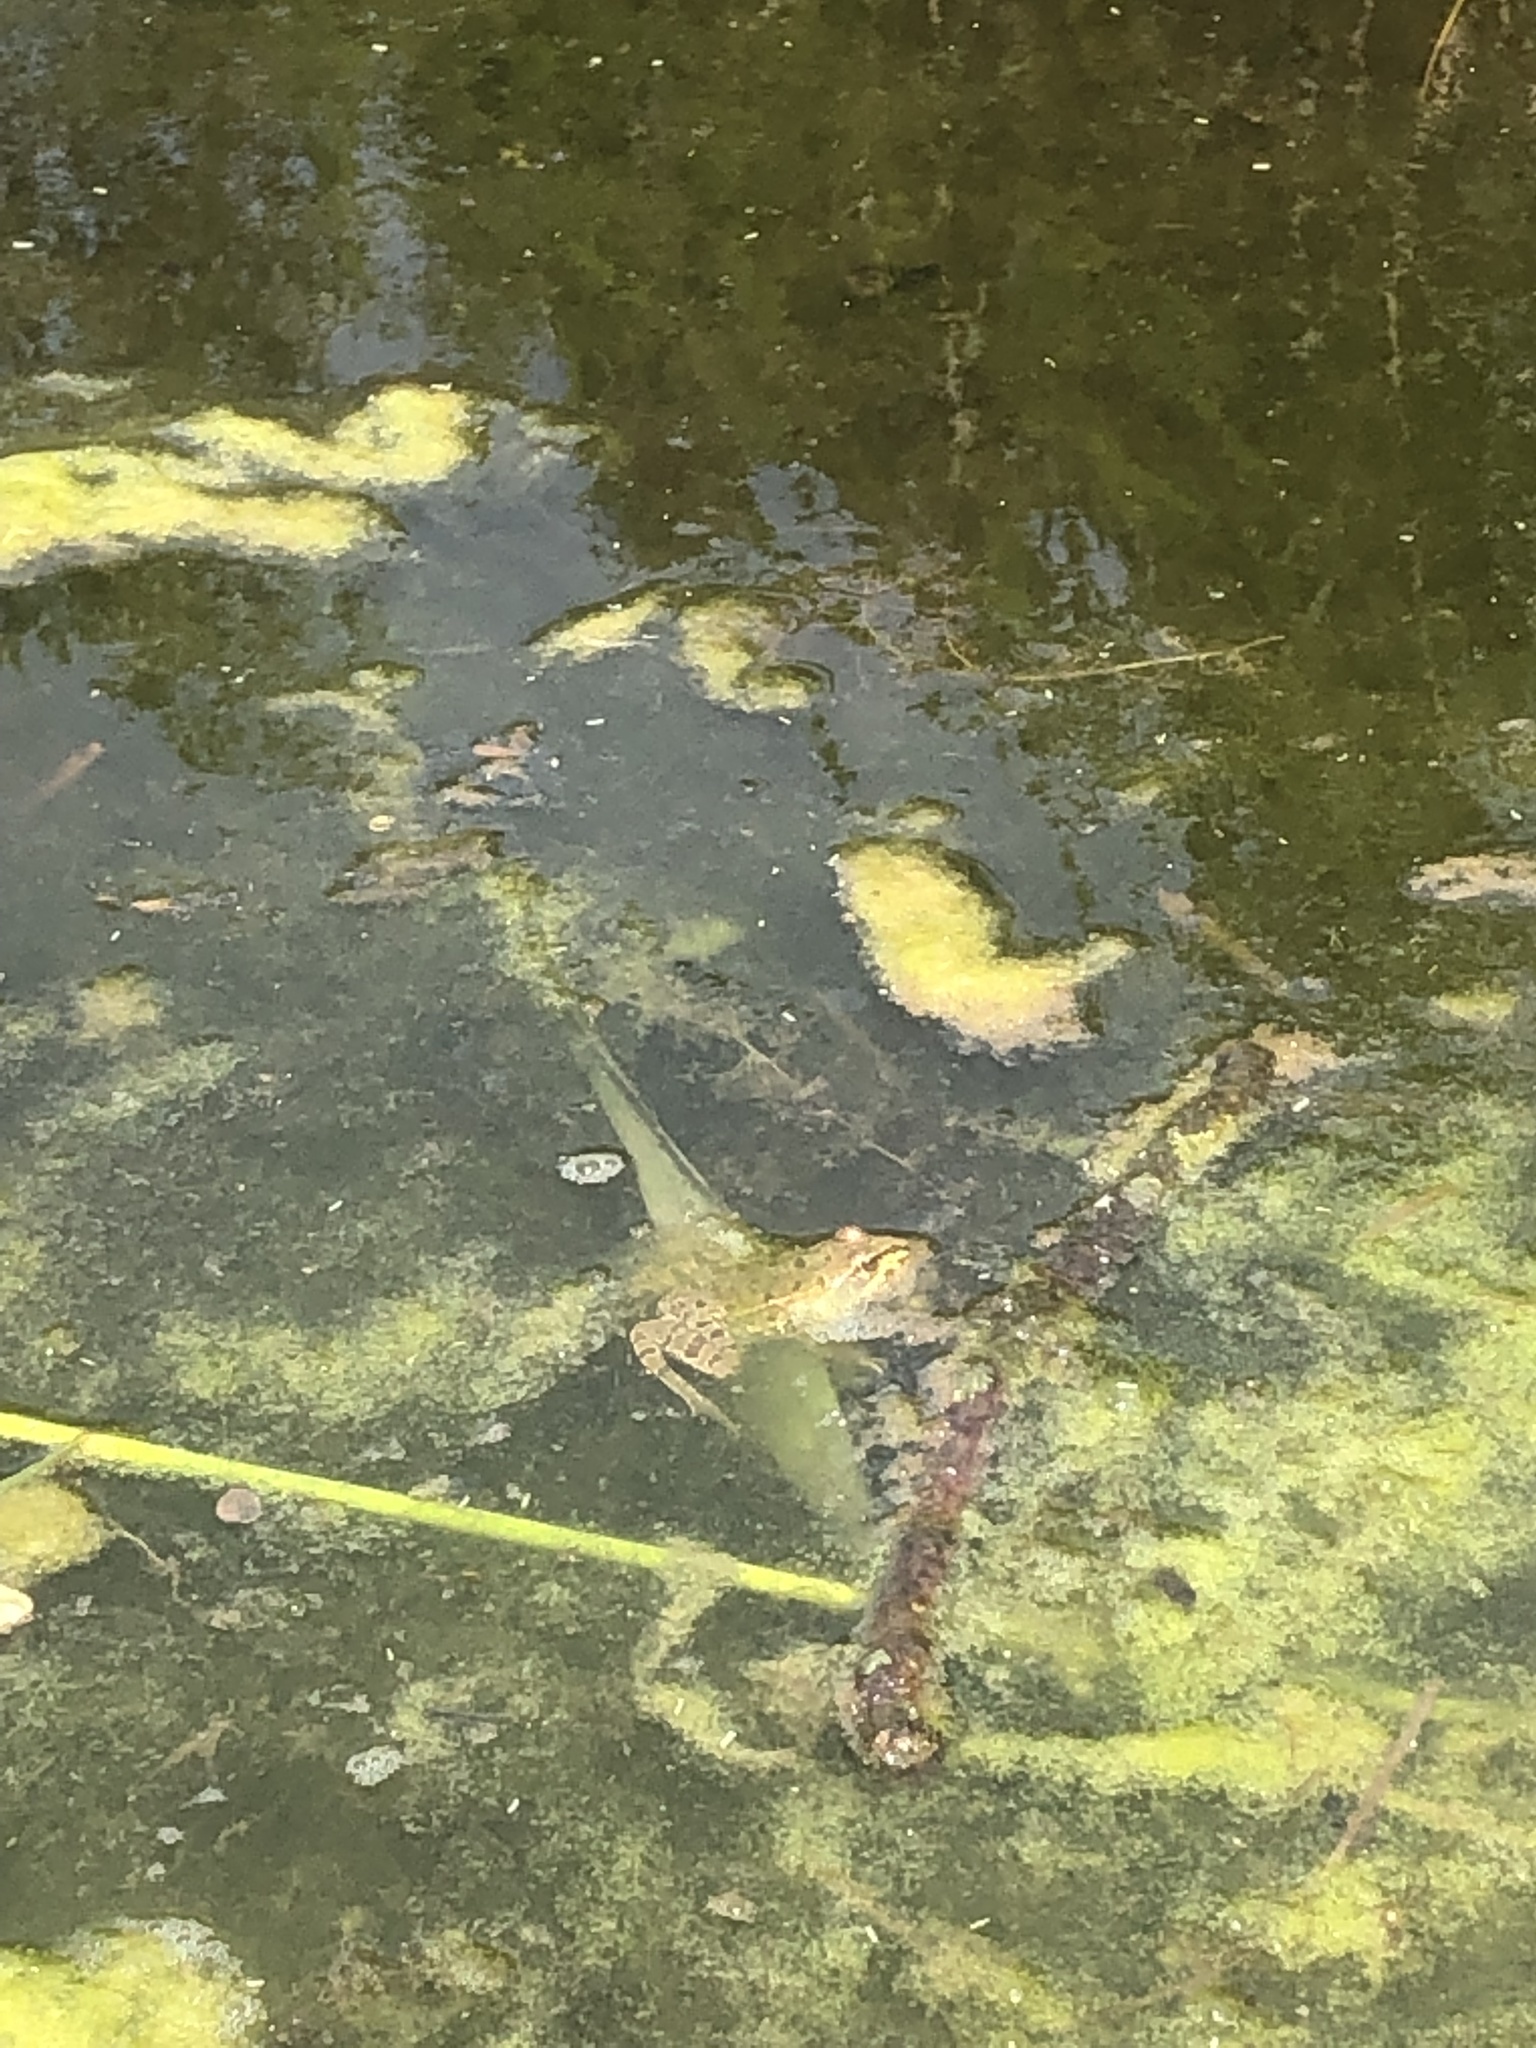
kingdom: Animalia
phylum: Chordata
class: Amphibia
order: Anura
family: Ranidae
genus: Pelophylax
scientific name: Pelophylax
